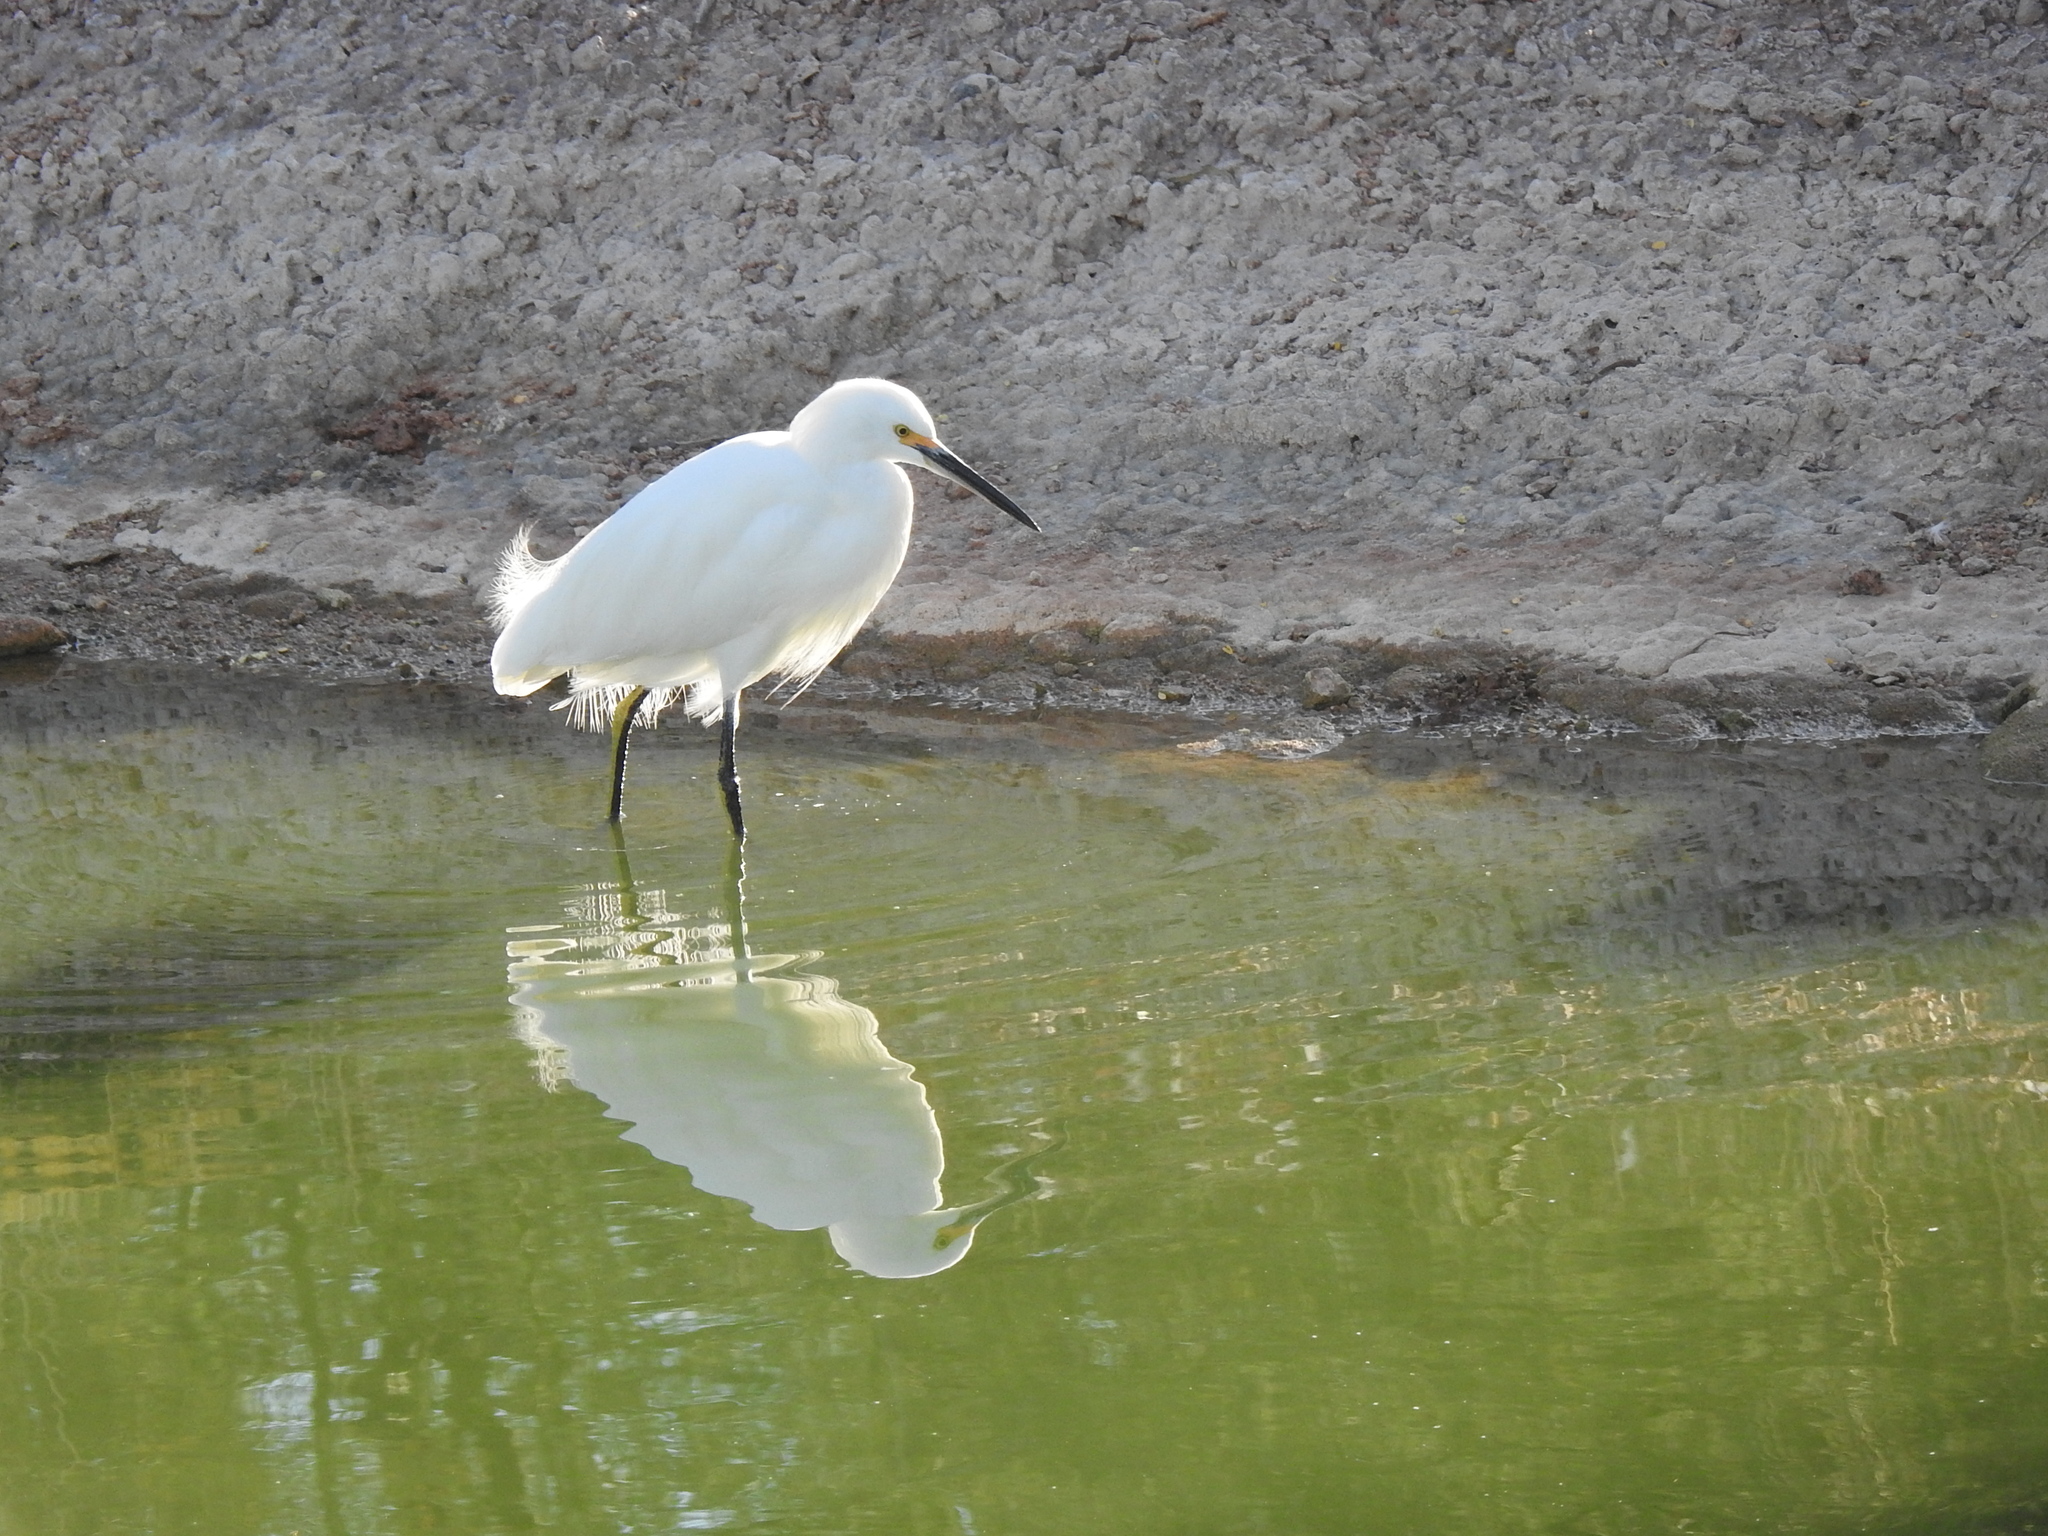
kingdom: Animalia
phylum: Chordata
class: Aves
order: Pelecaniformes
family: Ardeidae
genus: Egretta
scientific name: Egretta thula
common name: Snowy egret
